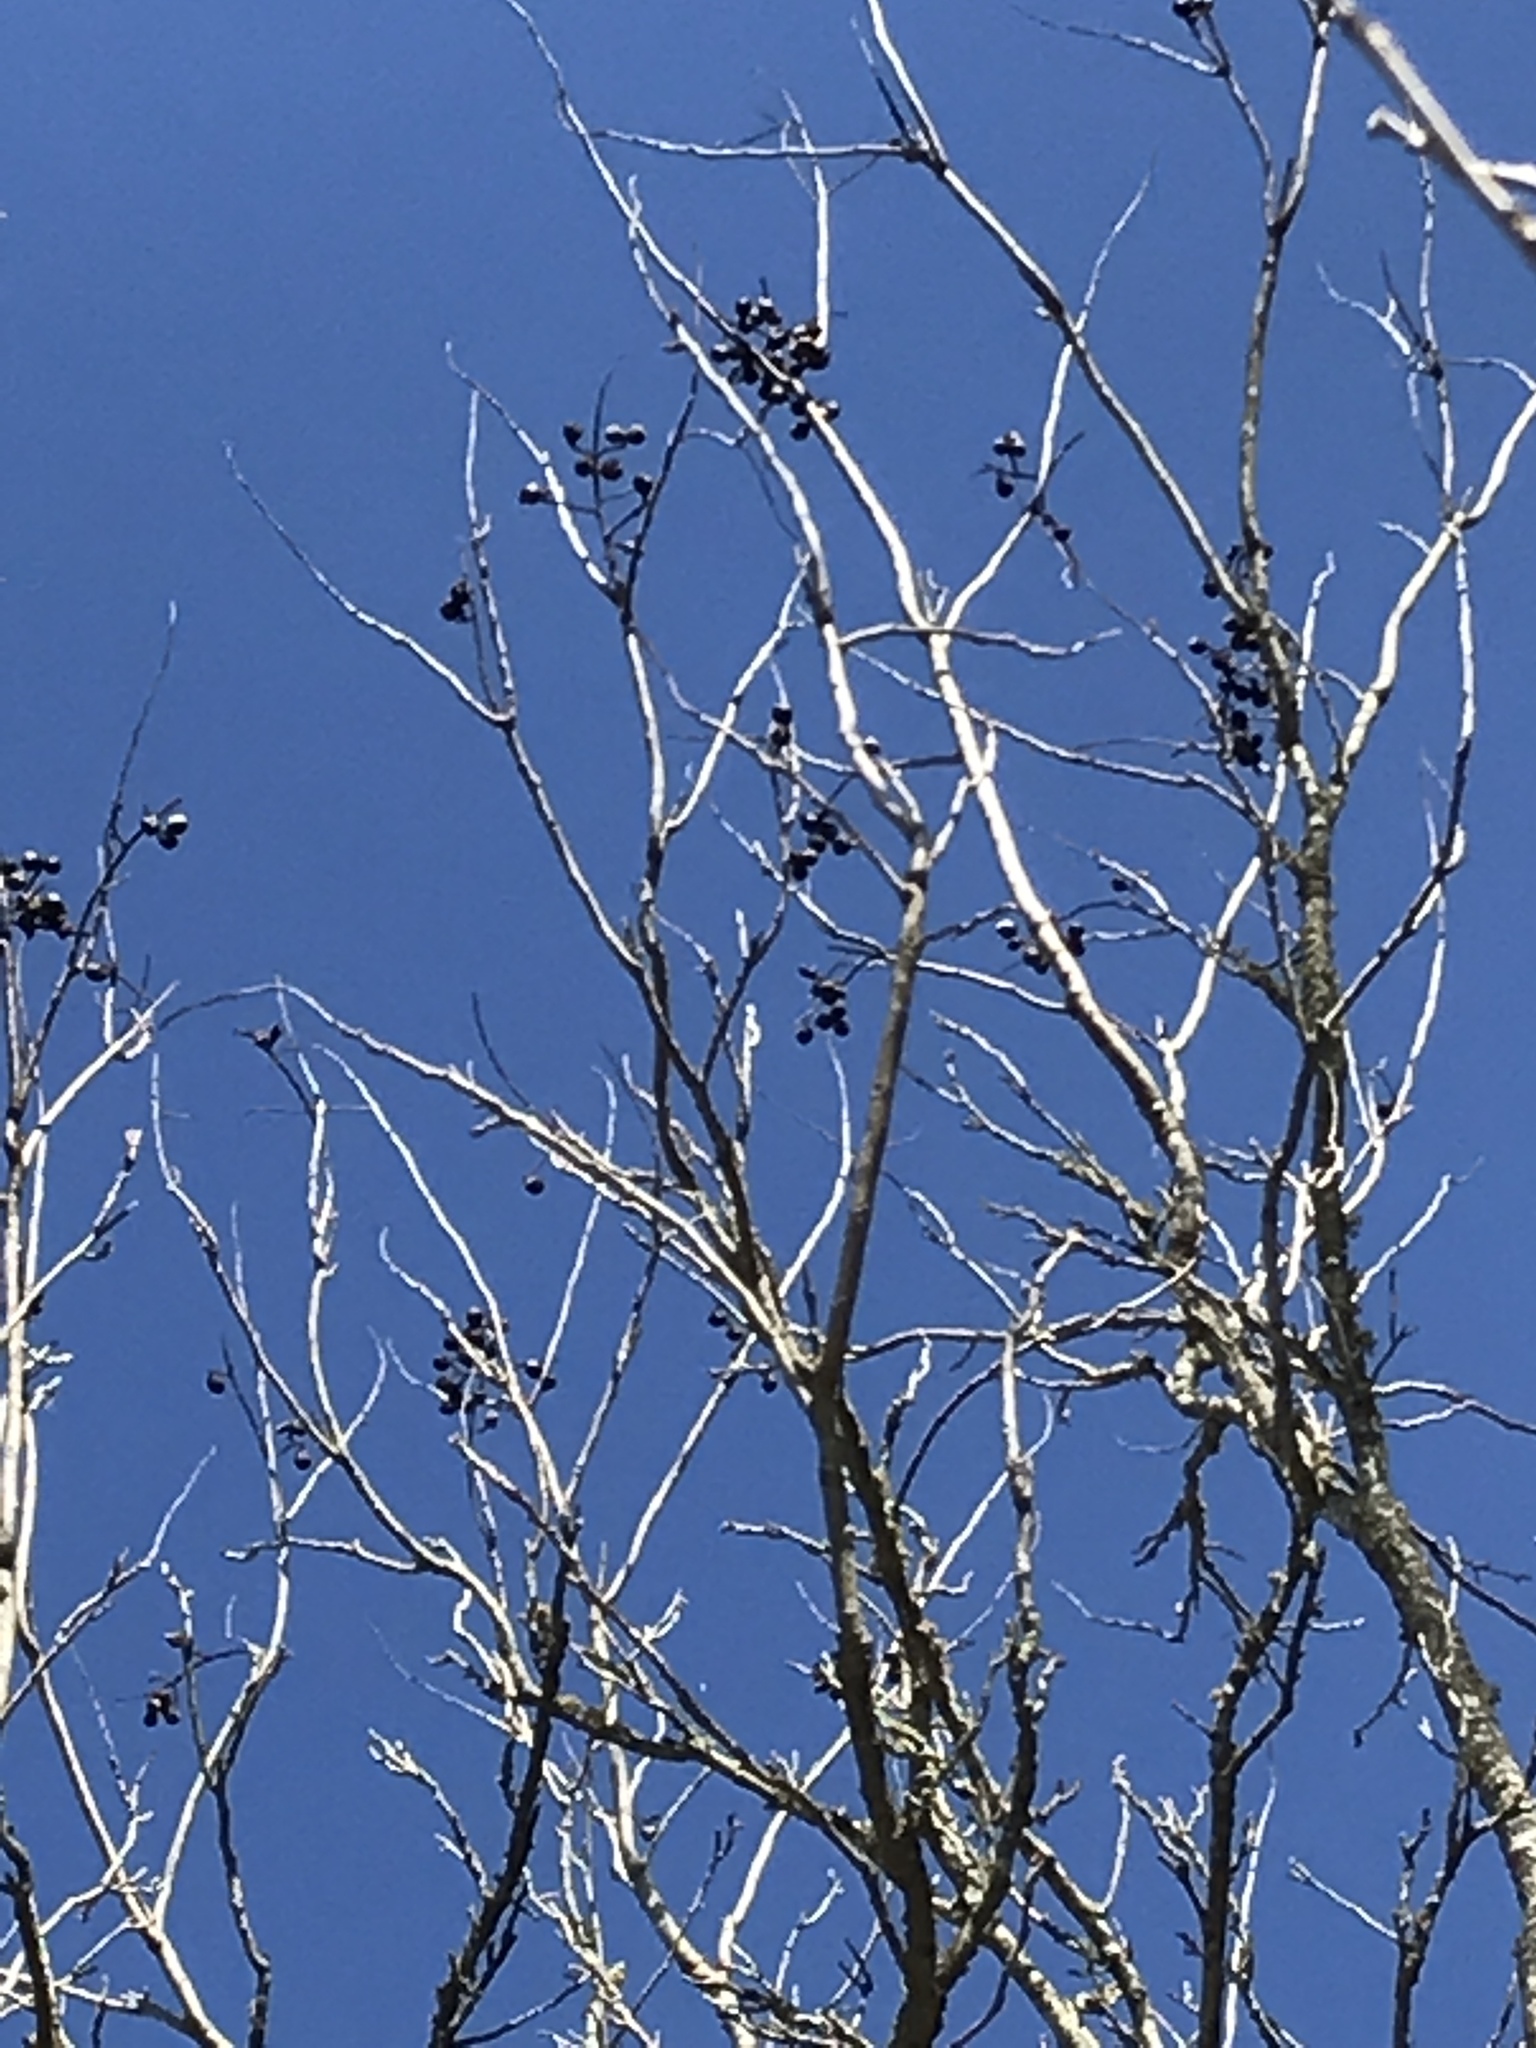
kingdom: Plantae
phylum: Tracheophyta
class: Magnoliopsida
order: Sapindales
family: Sapindaceae
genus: Sapindus
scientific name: Sapindus drummondii
